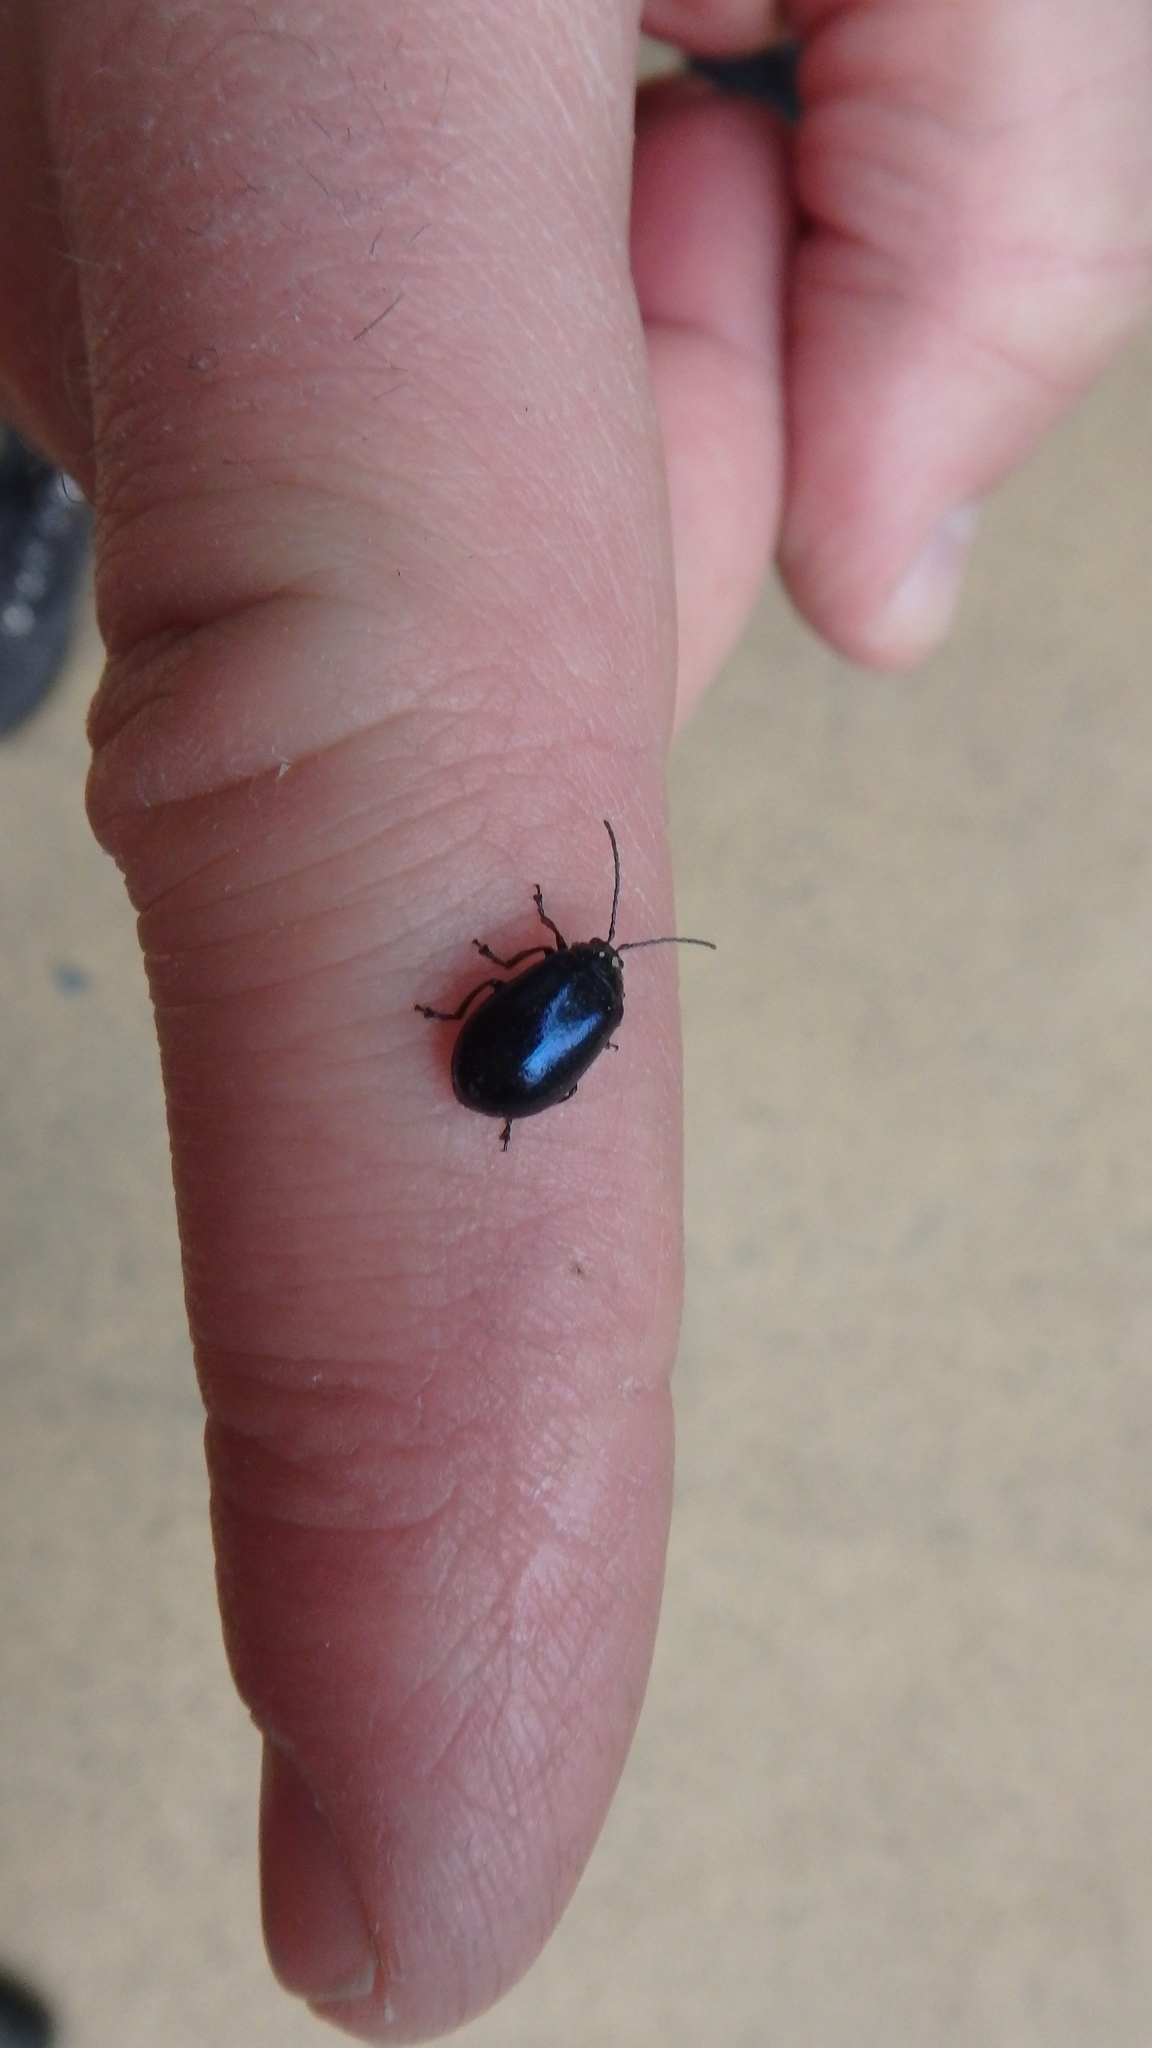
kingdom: Animalia
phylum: Arthropoda
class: Insecta
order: Coleoptera
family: Chrysomelidae
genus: Agelastica
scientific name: Agelastica alni
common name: Alder leaf beetle
